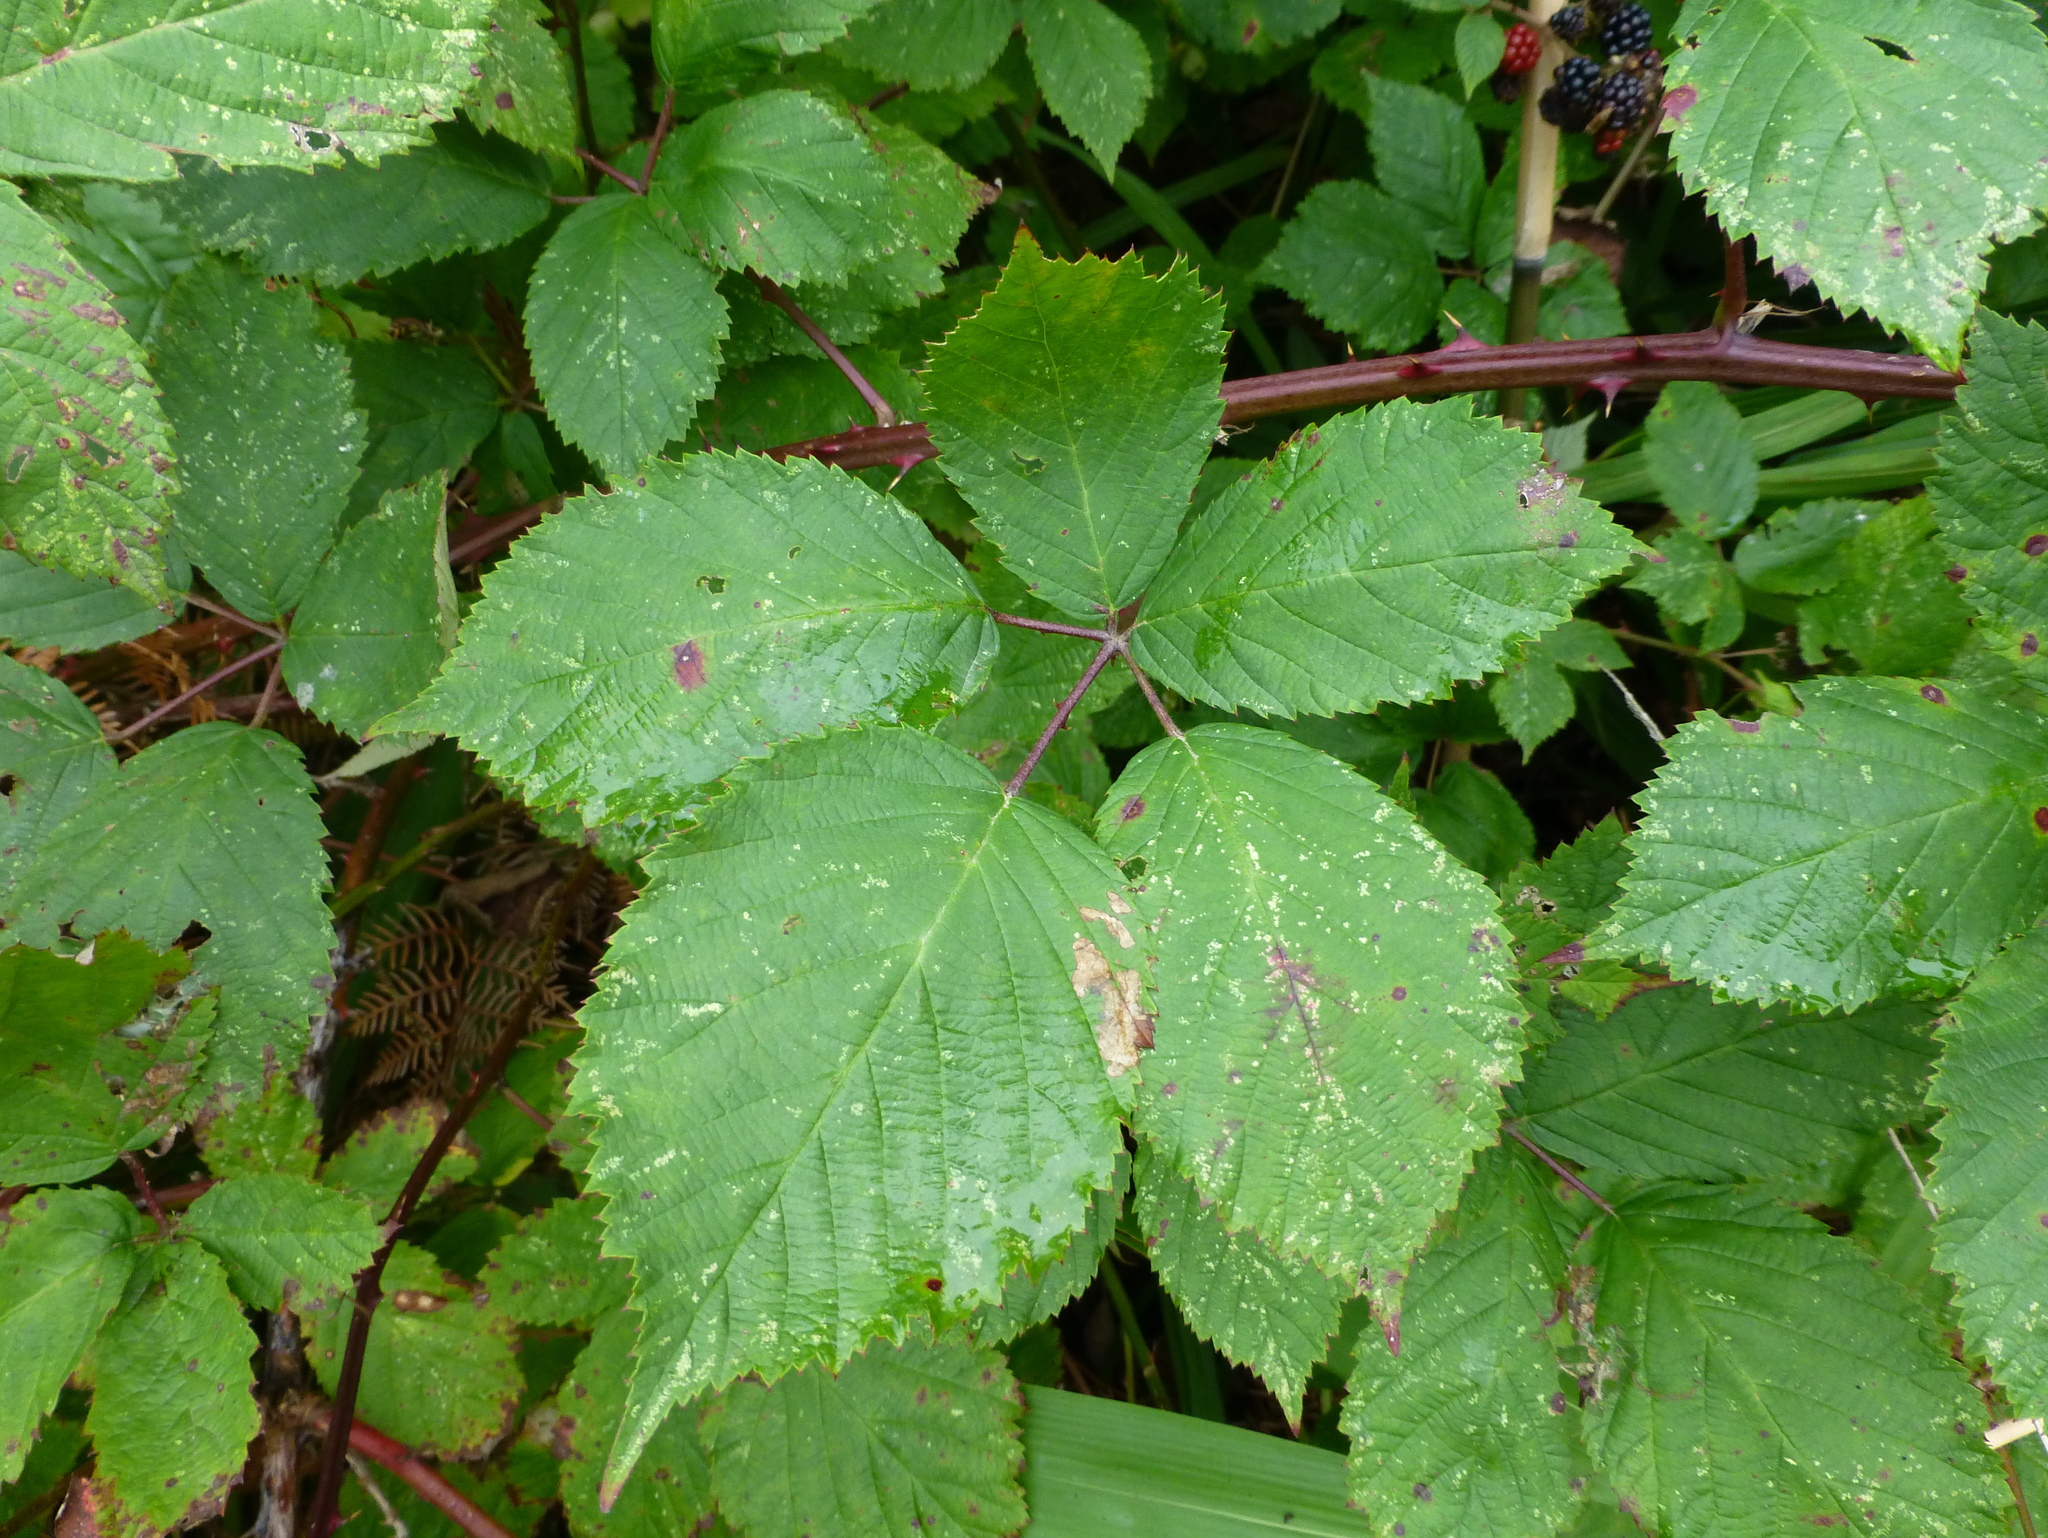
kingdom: Plantae
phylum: Tracheophyta
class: Magnoliopsida
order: Rosales
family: Rosaceae
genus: Rubus
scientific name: Rubus
